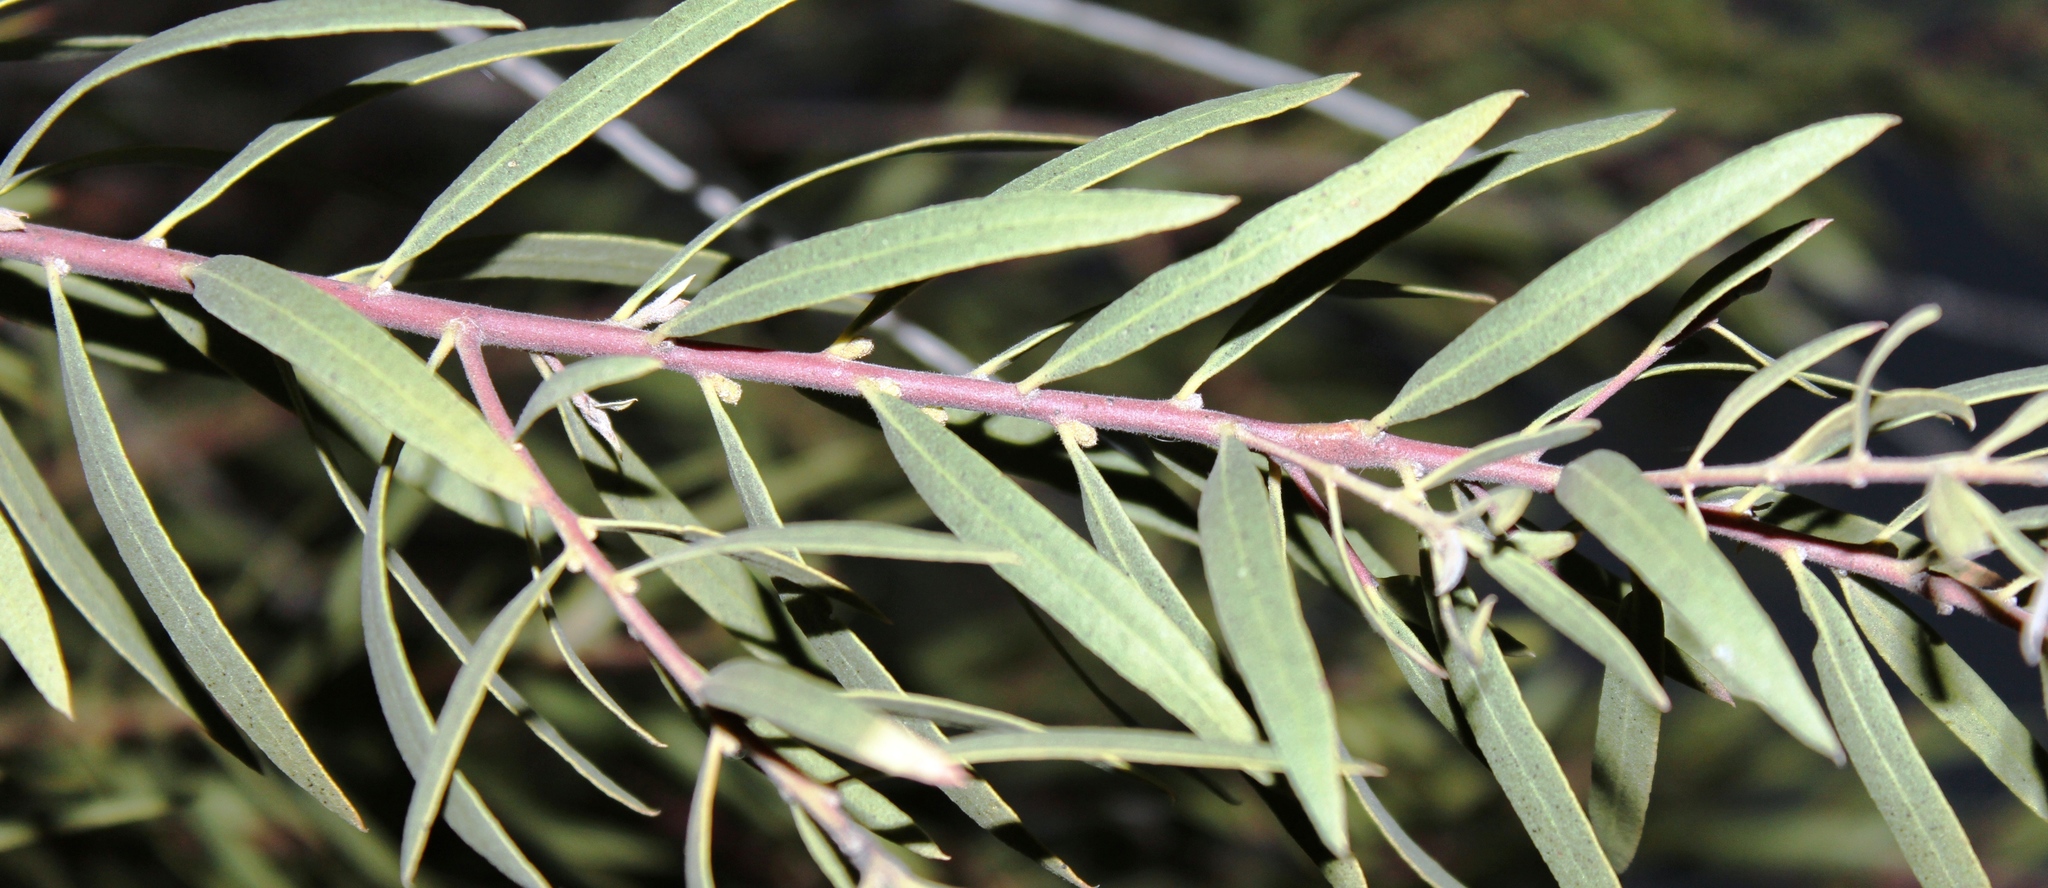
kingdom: Plantae
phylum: Tracheophyta
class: Magnoliopsida
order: Ericales
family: Ebenaceae
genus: Euclea
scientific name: Euclea pseudebenus
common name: Black ebony
